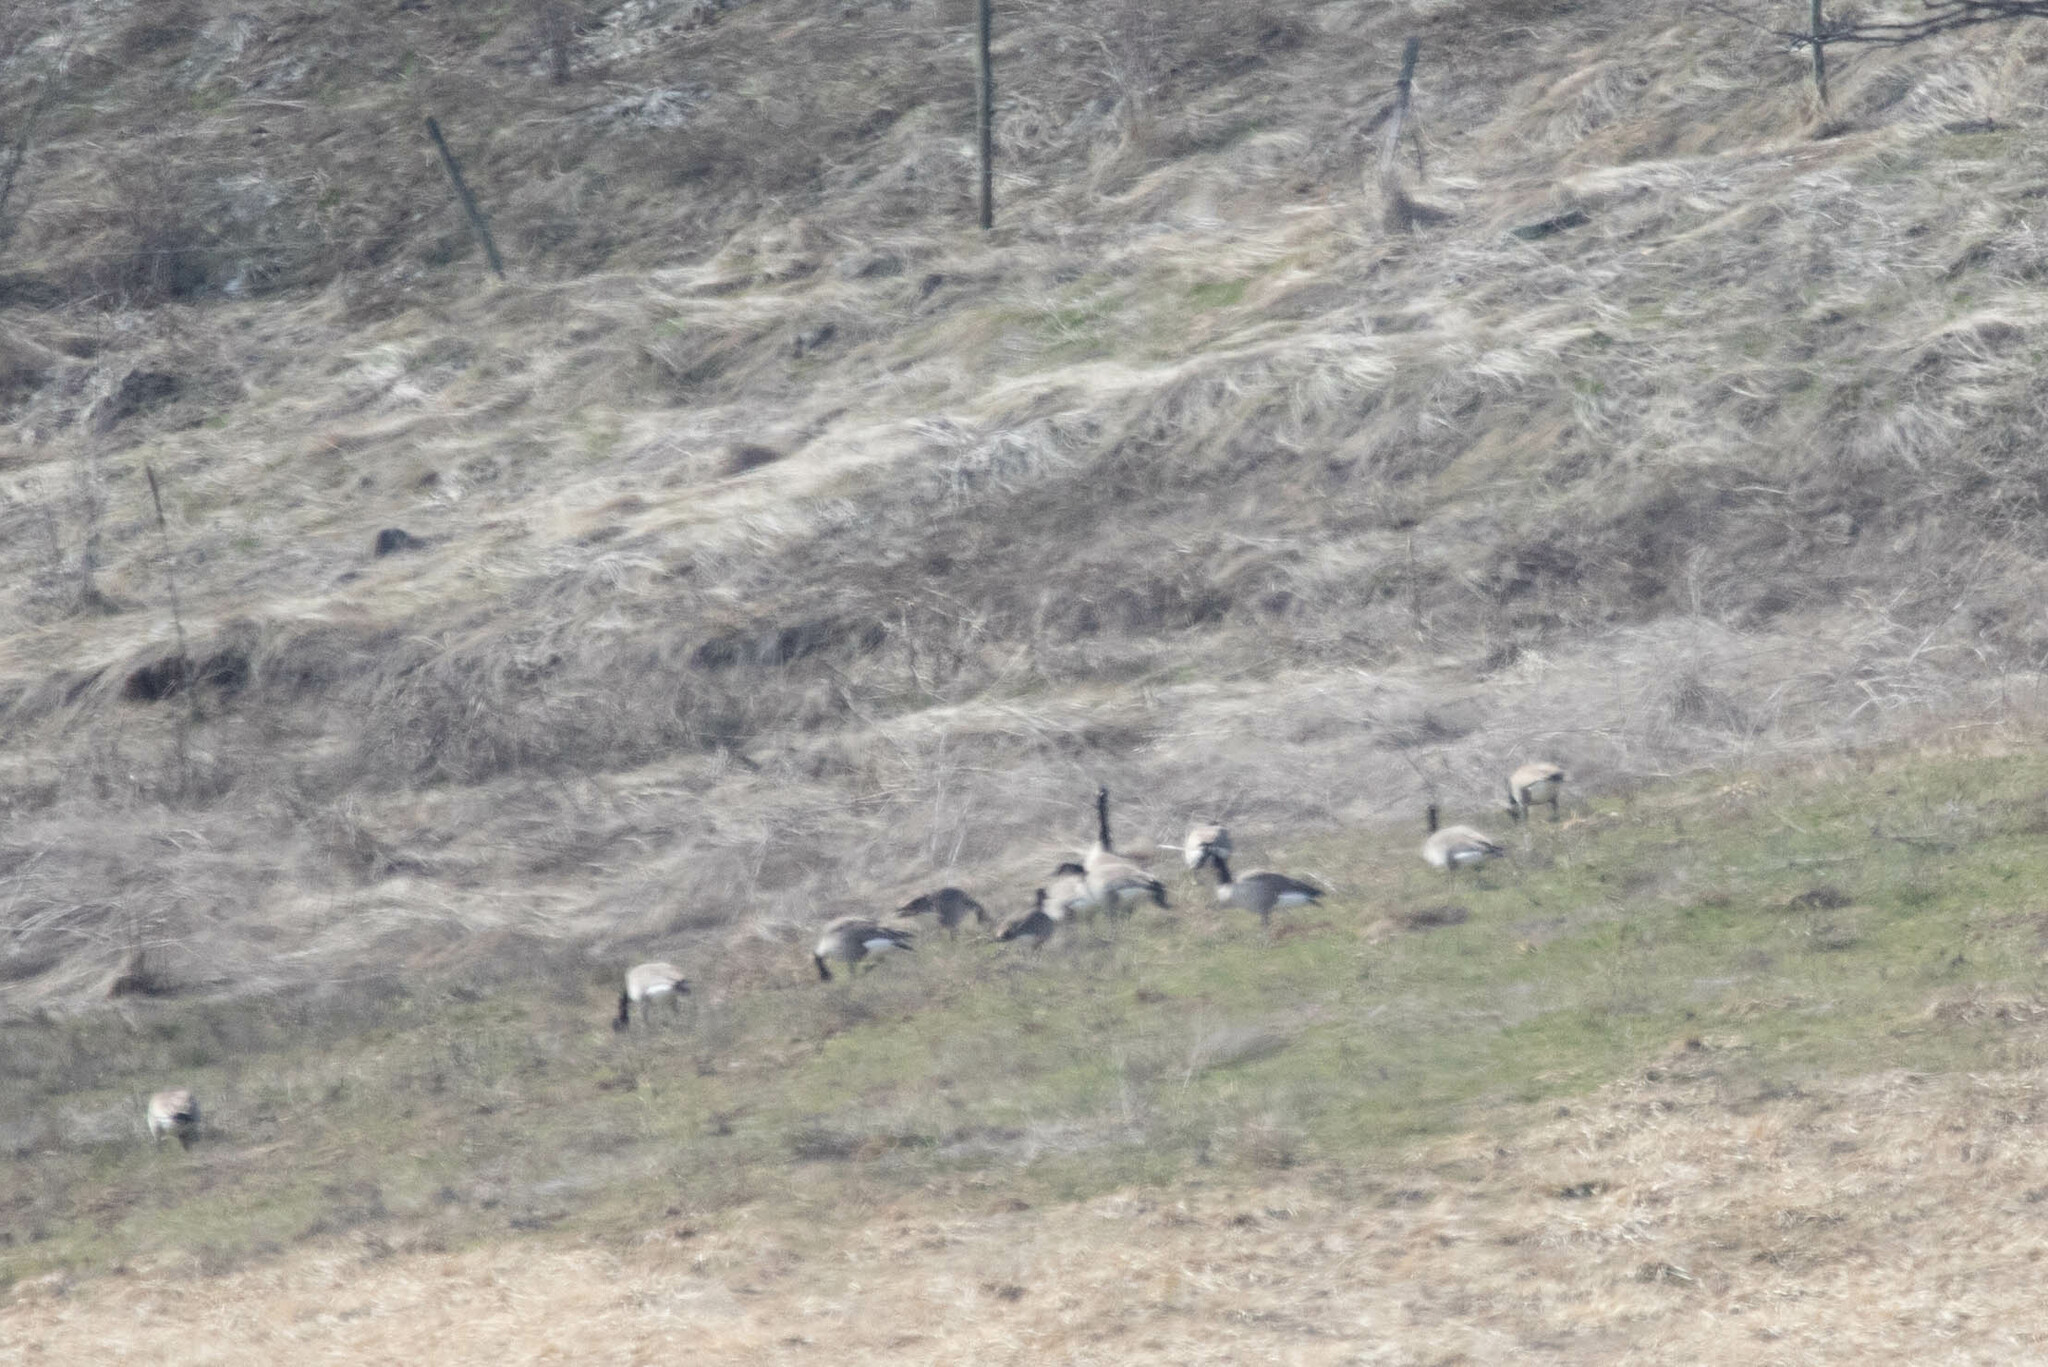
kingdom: Animalia
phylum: Chordata
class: Aves
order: Anseriformes
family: Anatidae
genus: Branta
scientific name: Branta canadensis
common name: Canada goose
